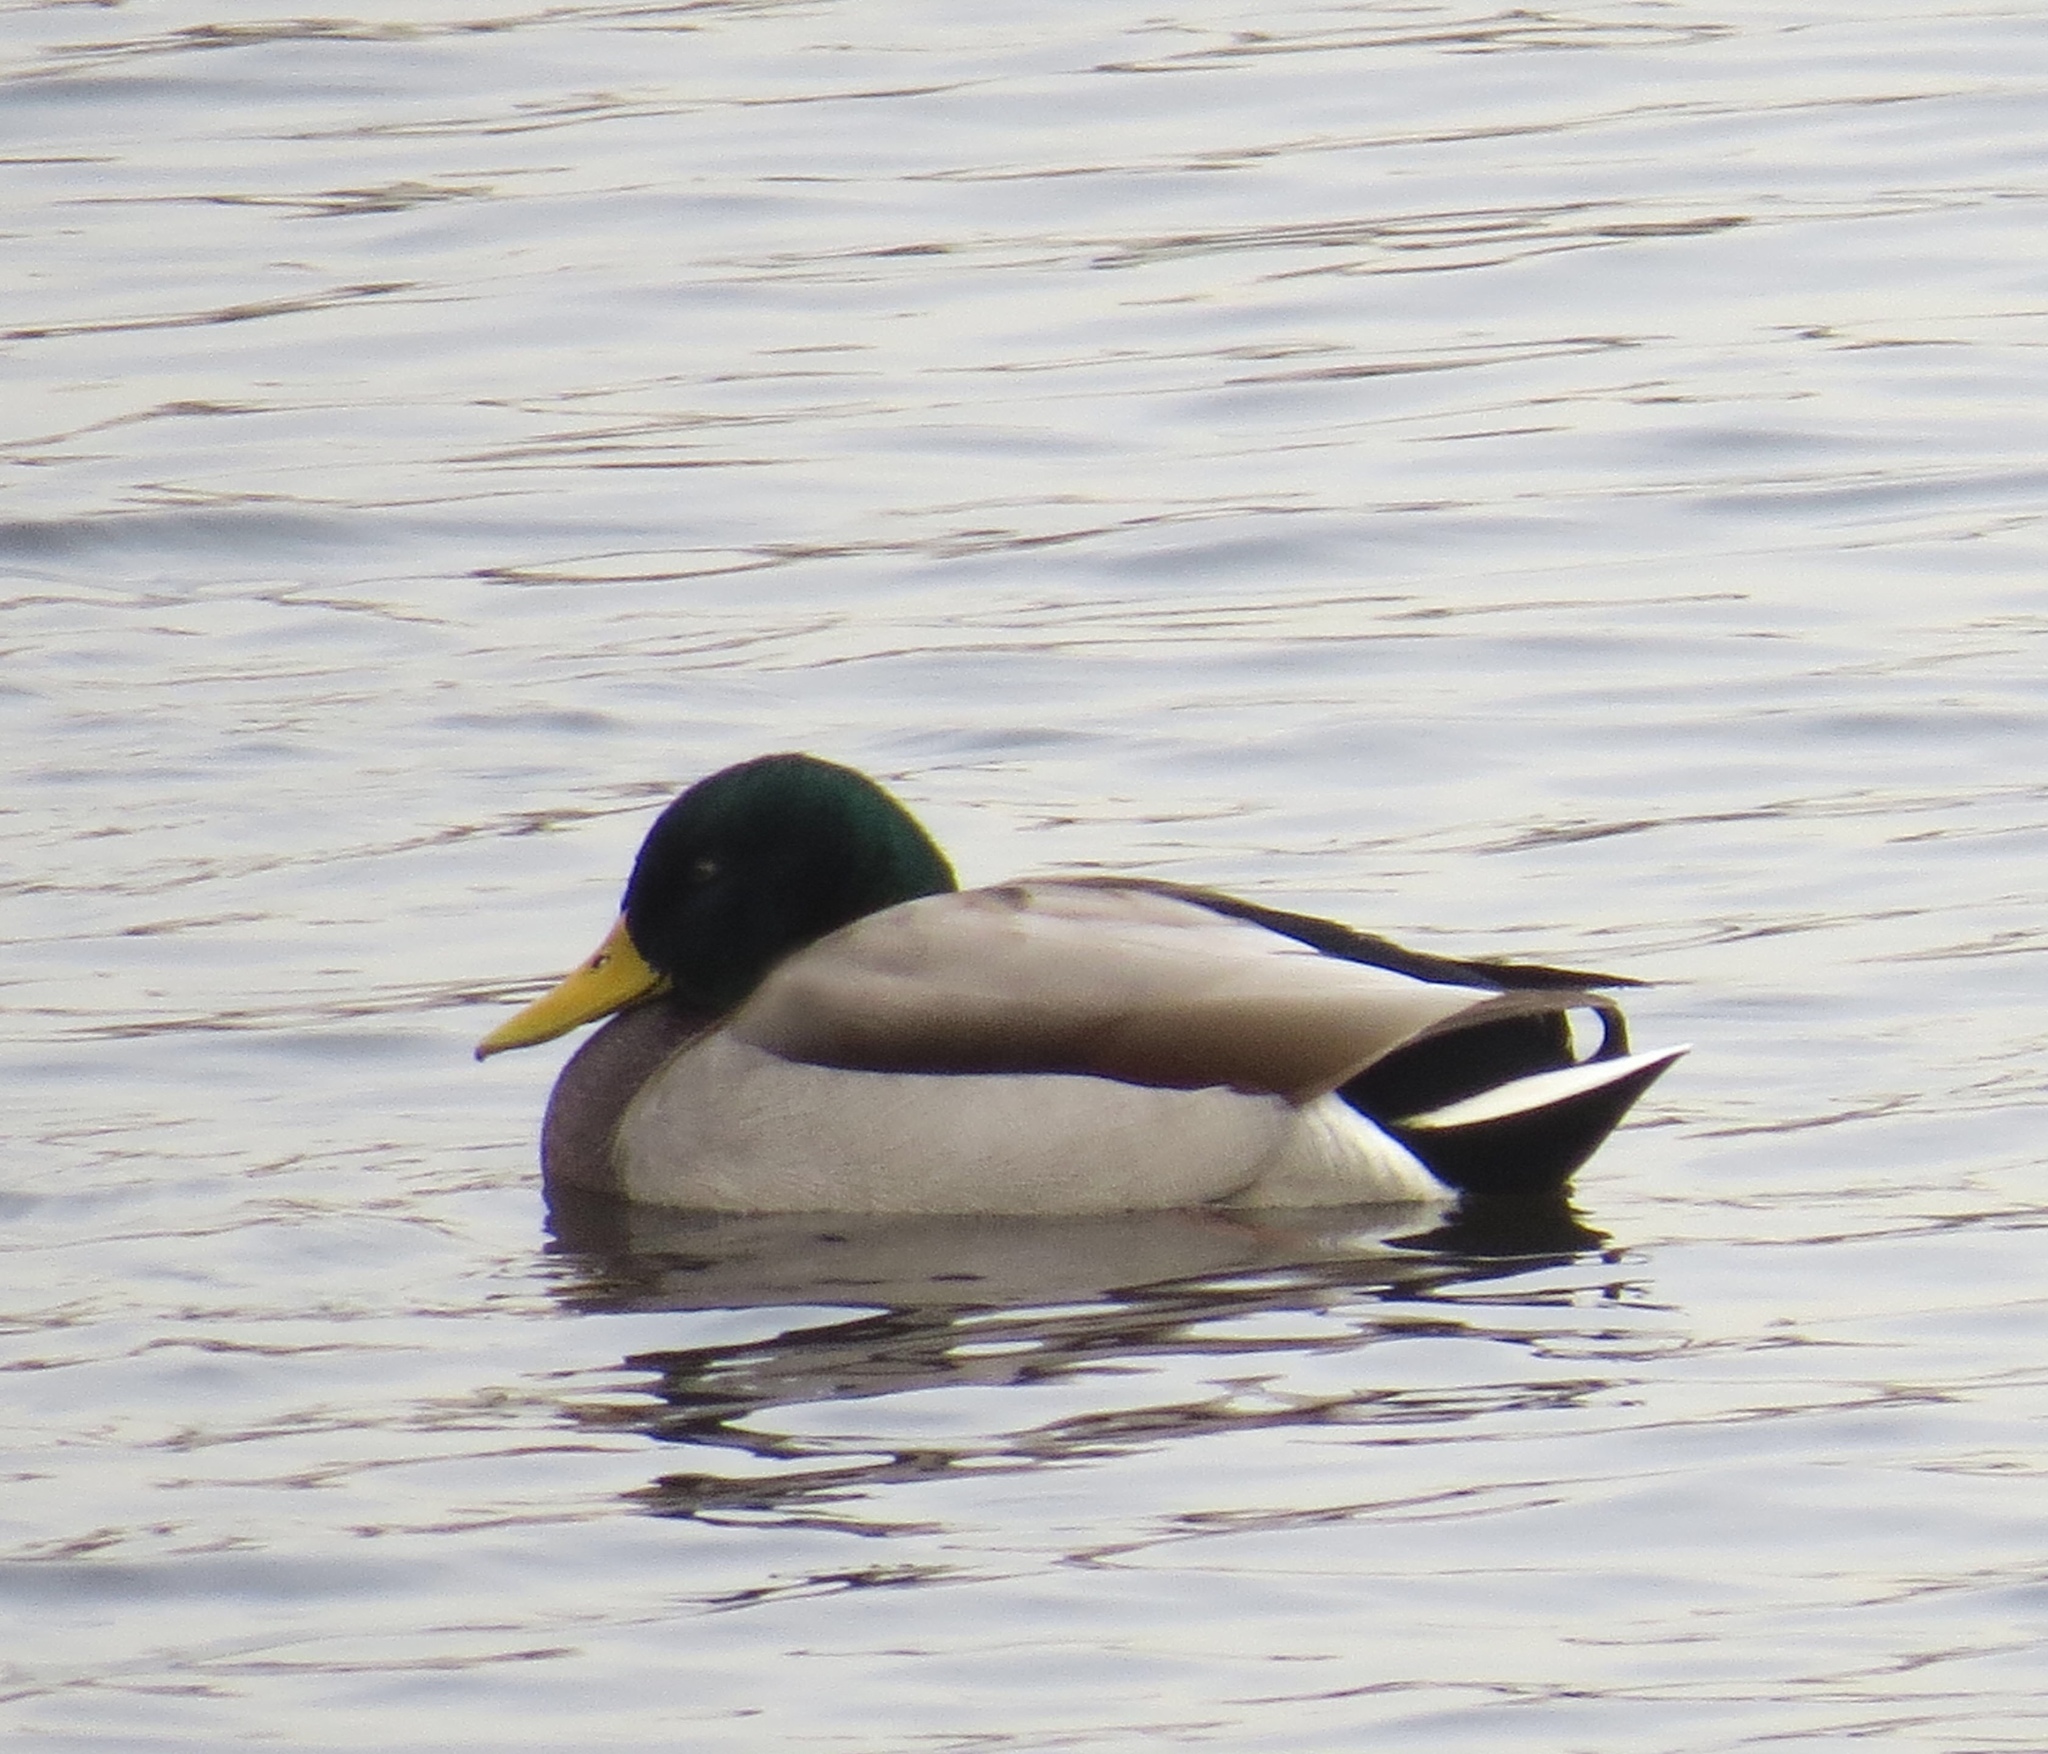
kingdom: Animalia
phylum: Chordata
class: Aves
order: Anseriformes
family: Anatidae
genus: Anas
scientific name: Anas platyrhynchos
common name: Mallard
